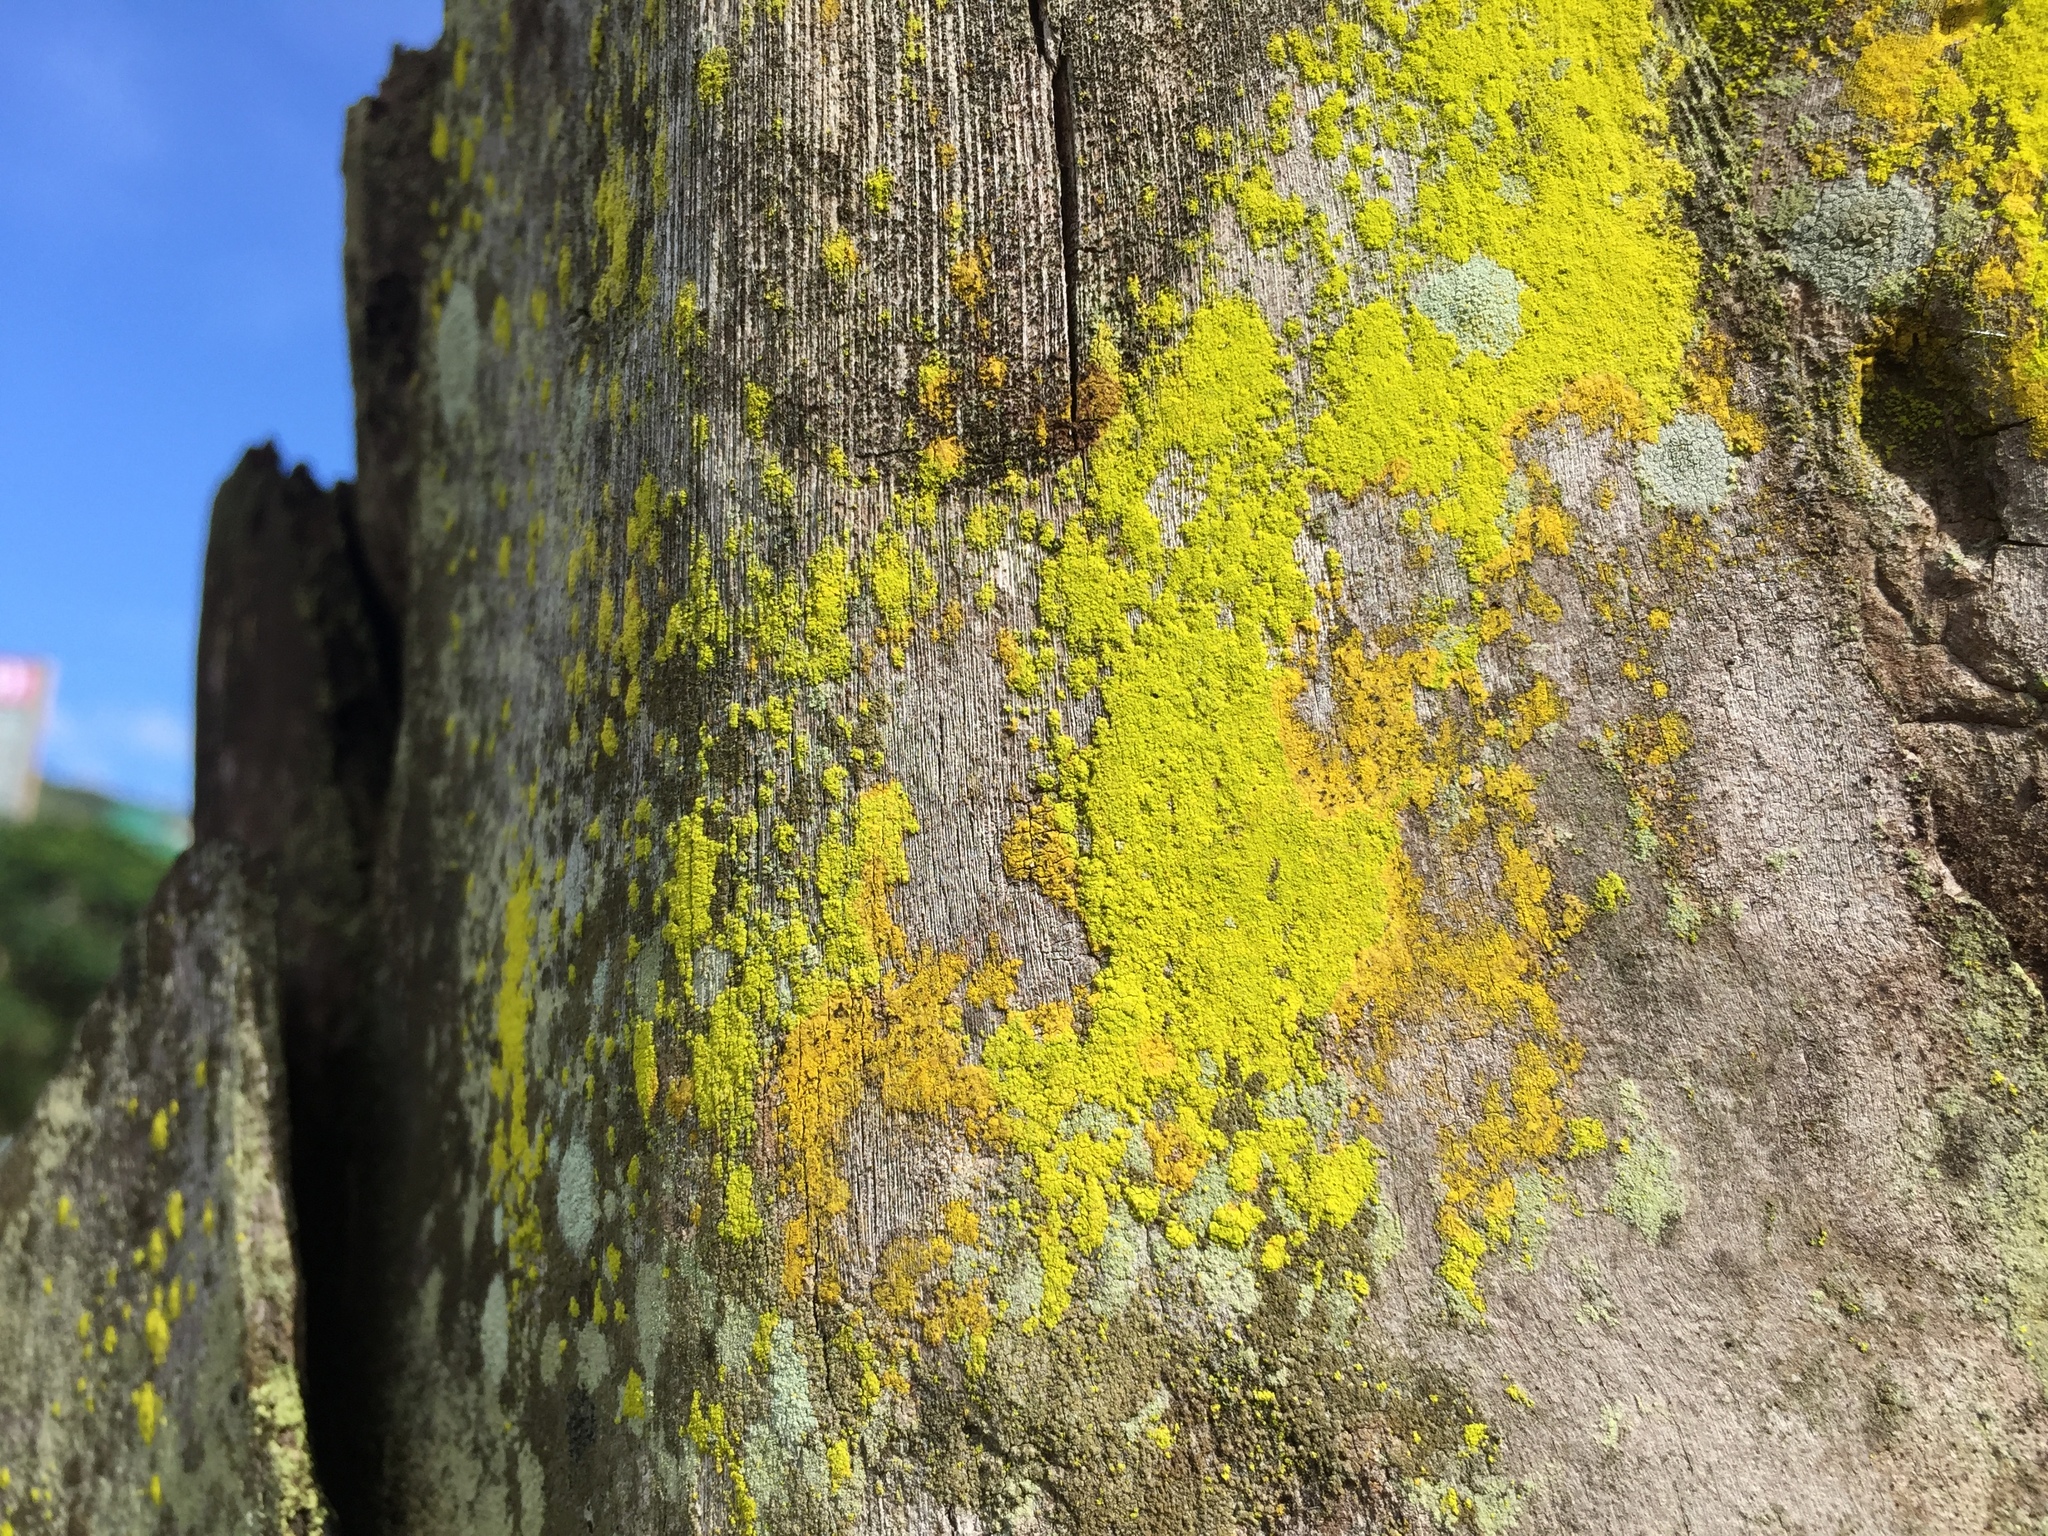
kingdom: Fungi
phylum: Ascomycota
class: Arthoniomycetes
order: Arthoniales
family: Chrysotrichaceae
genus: Chrysothrix
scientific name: Chrysothrix candelaris
